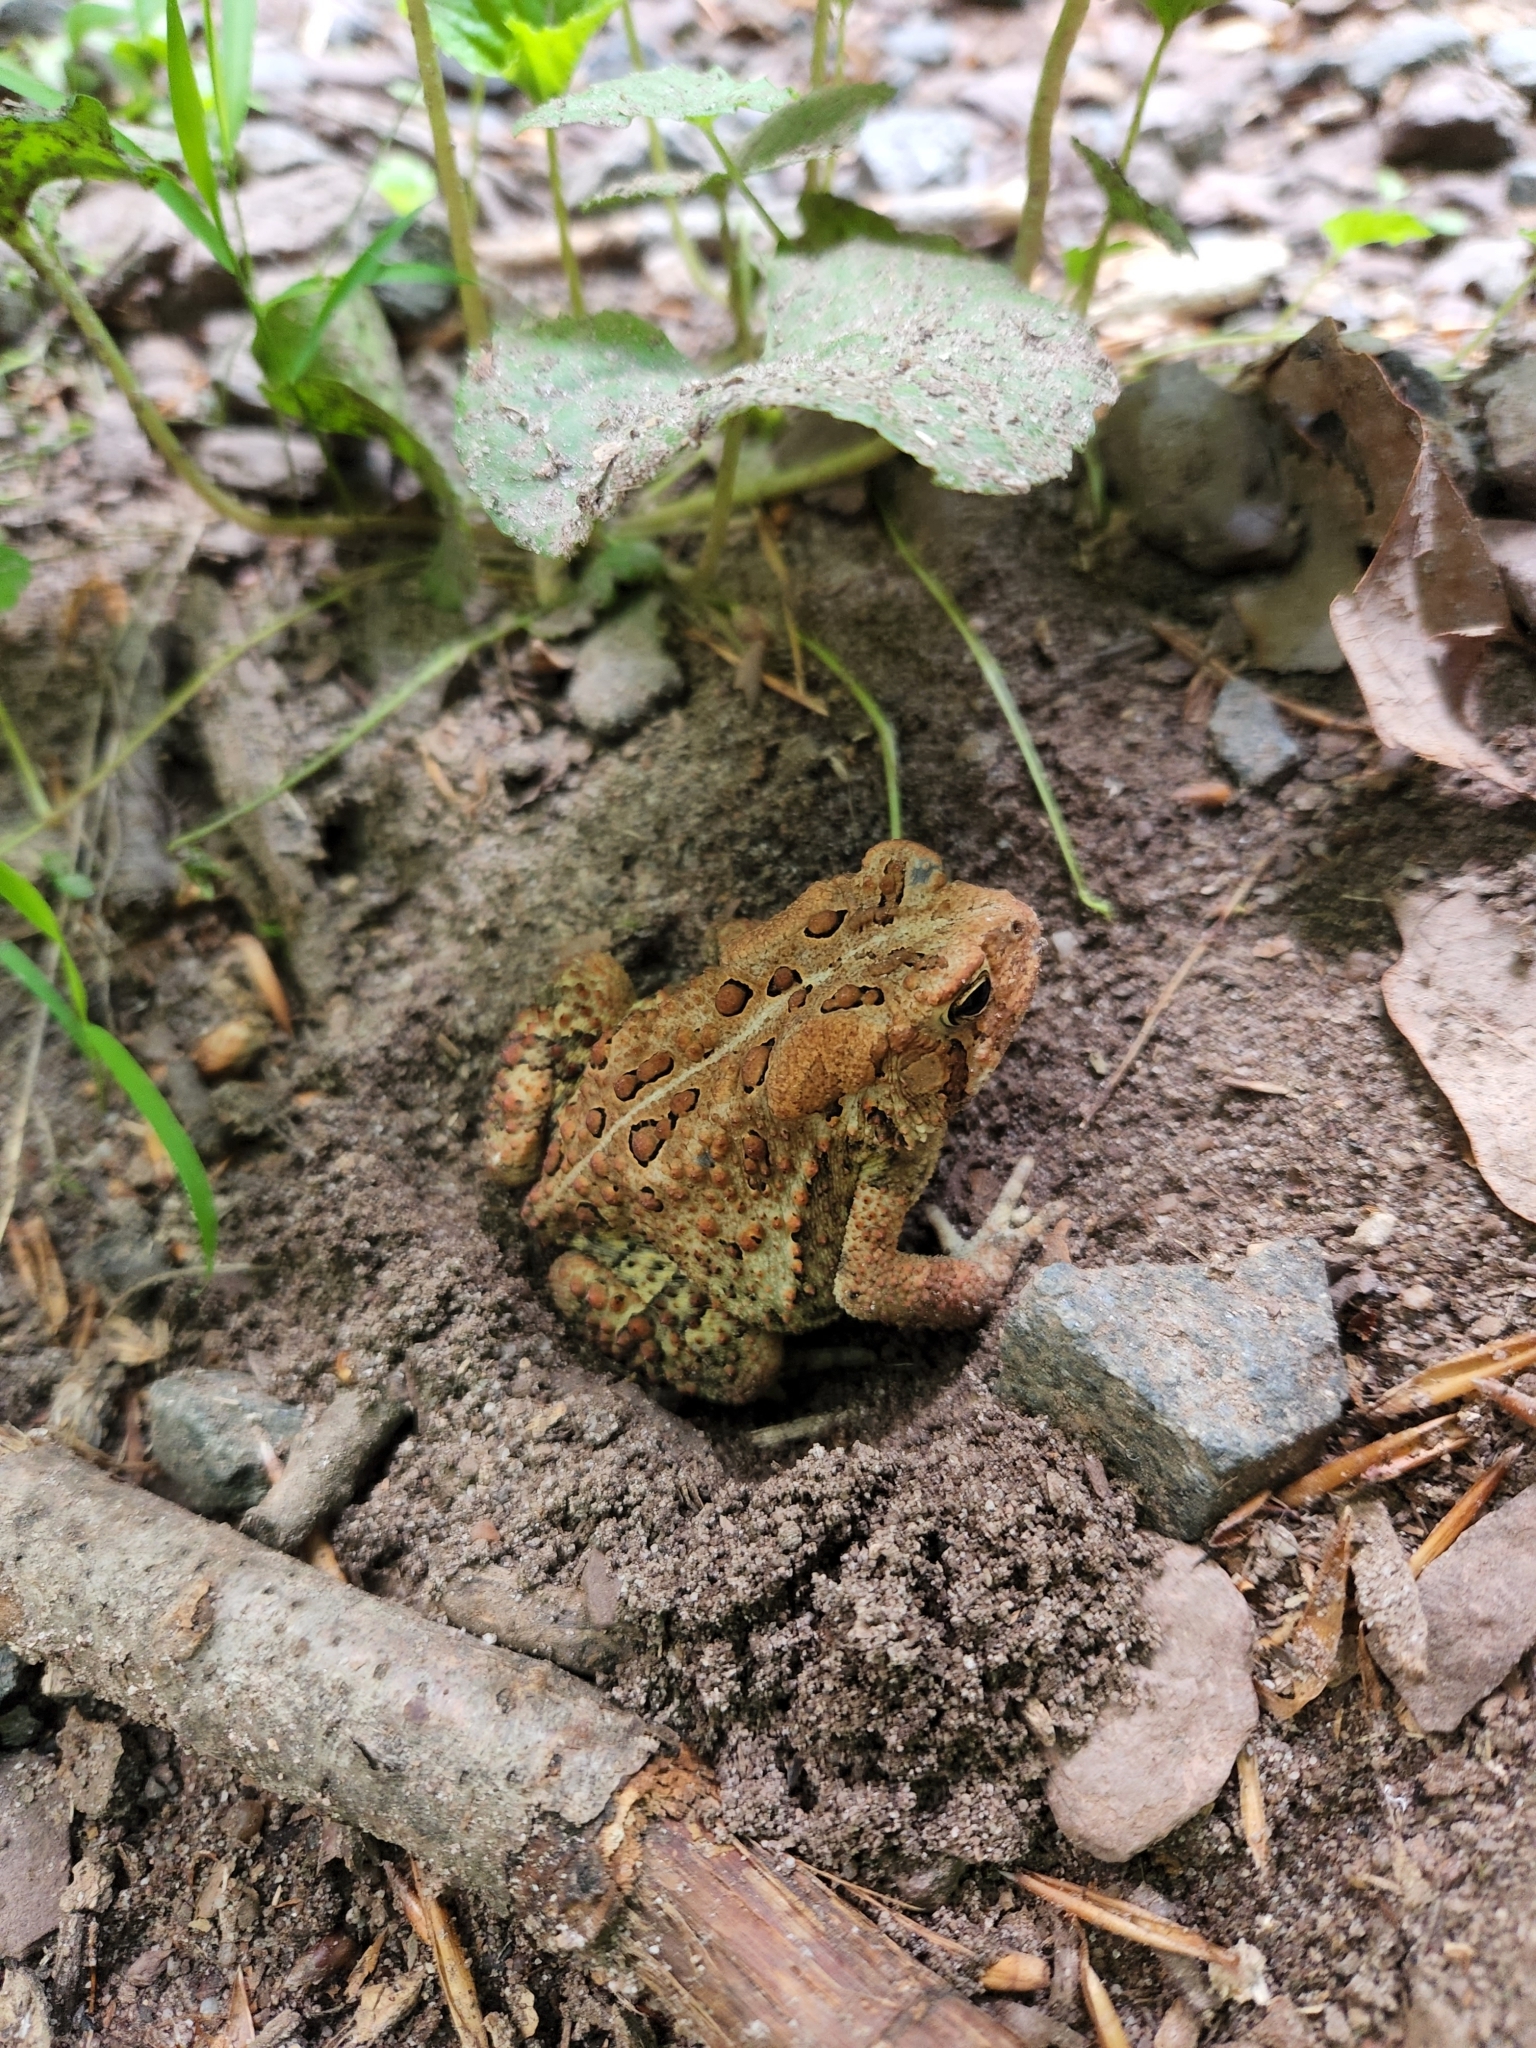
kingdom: Animalia
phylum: Chordata
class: Amphibia
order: Anura
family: Bufonidae
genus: Anaxyrus
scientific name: Anaxyrus americanus
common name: American toad
